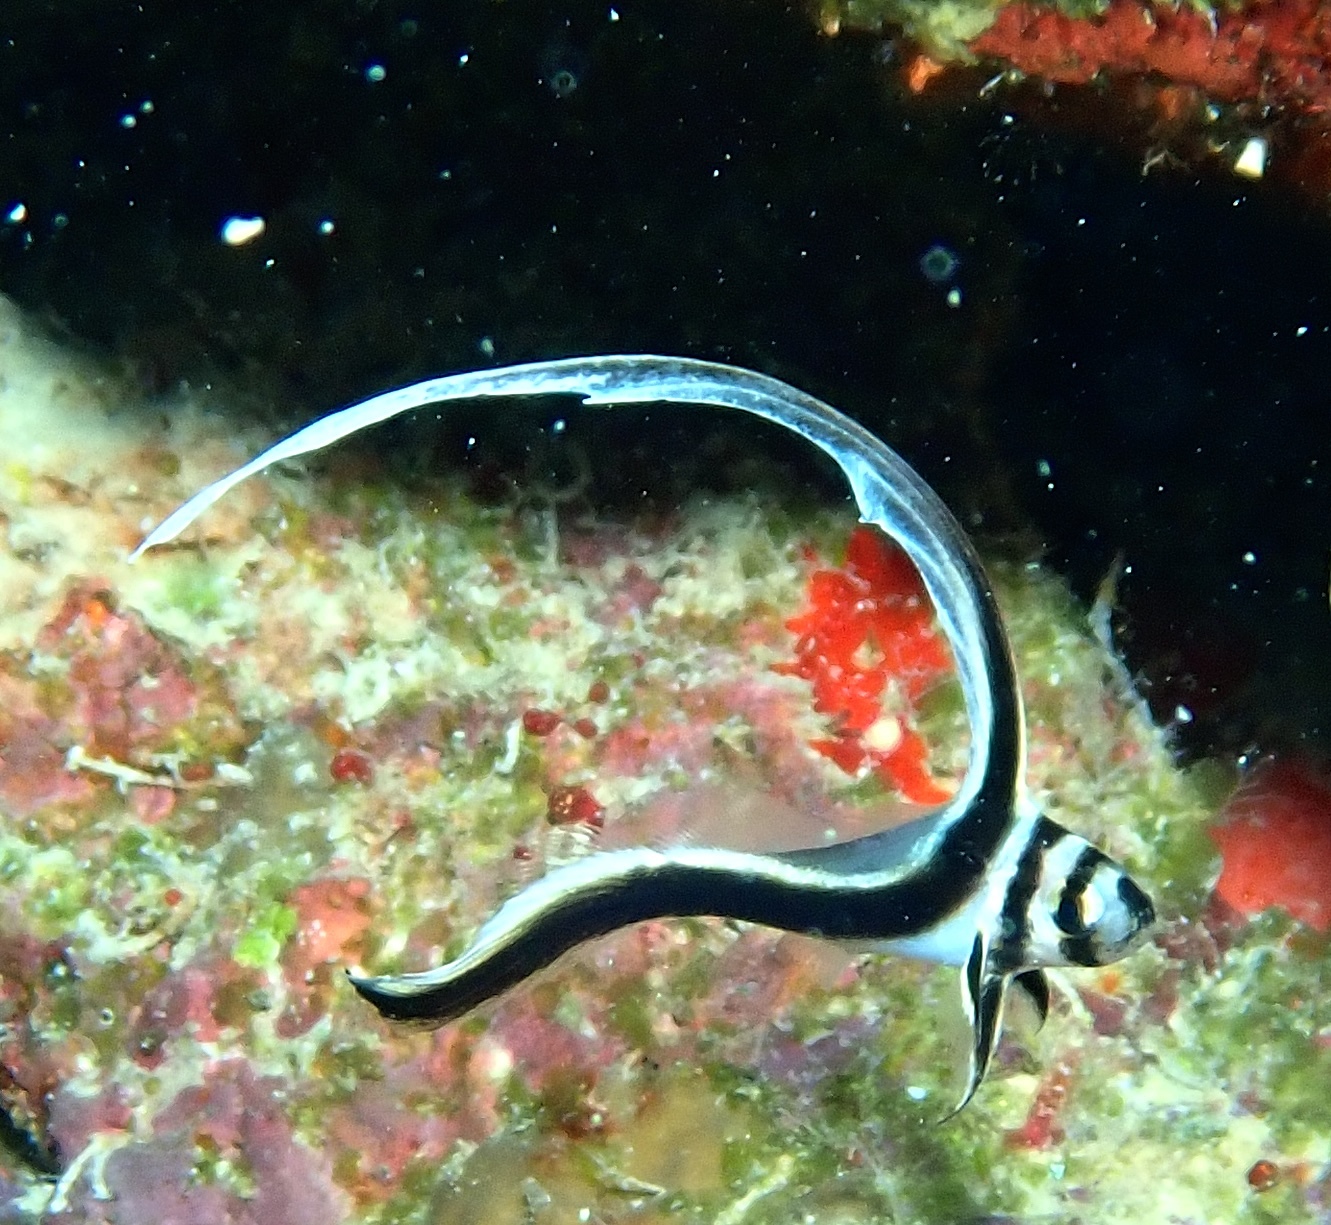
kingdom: Animalia
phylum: Chordata
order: Perciformes
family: Sciaenidae
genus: Equetus
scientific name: Equetus punctatus
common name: Spotted drum
